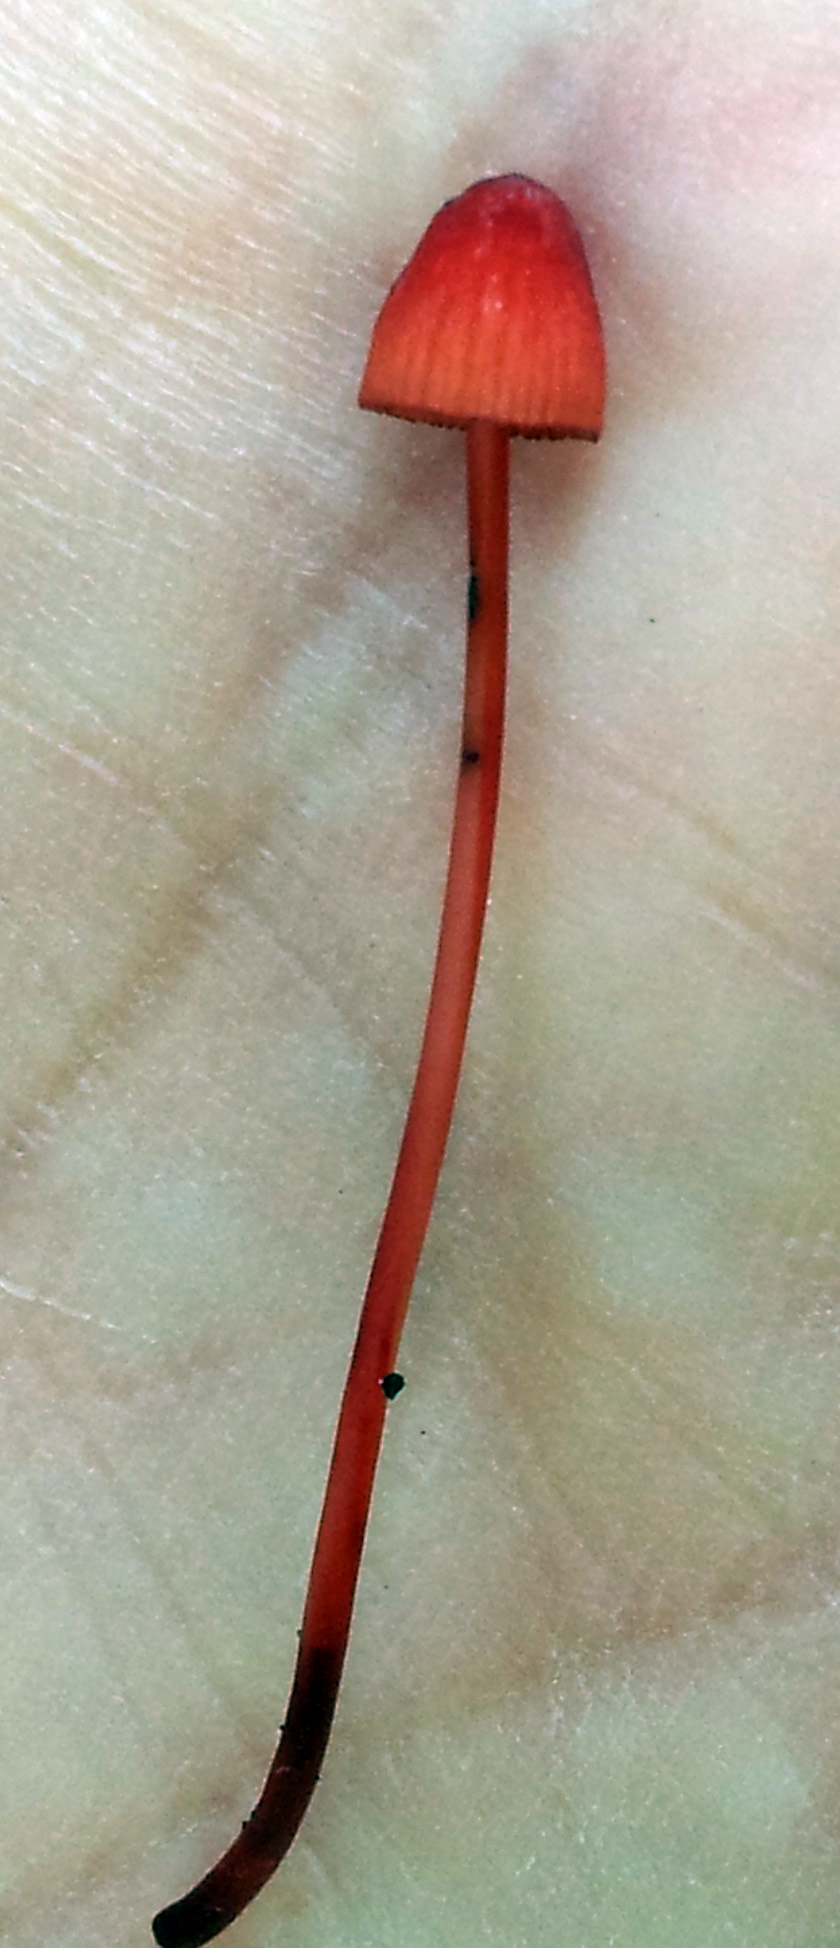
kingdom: Fungi
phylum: Basidiomycota
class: Agaricomycetes
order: Agaricales
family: Mycenaceae
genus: Mycena
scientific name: Mycena ura
